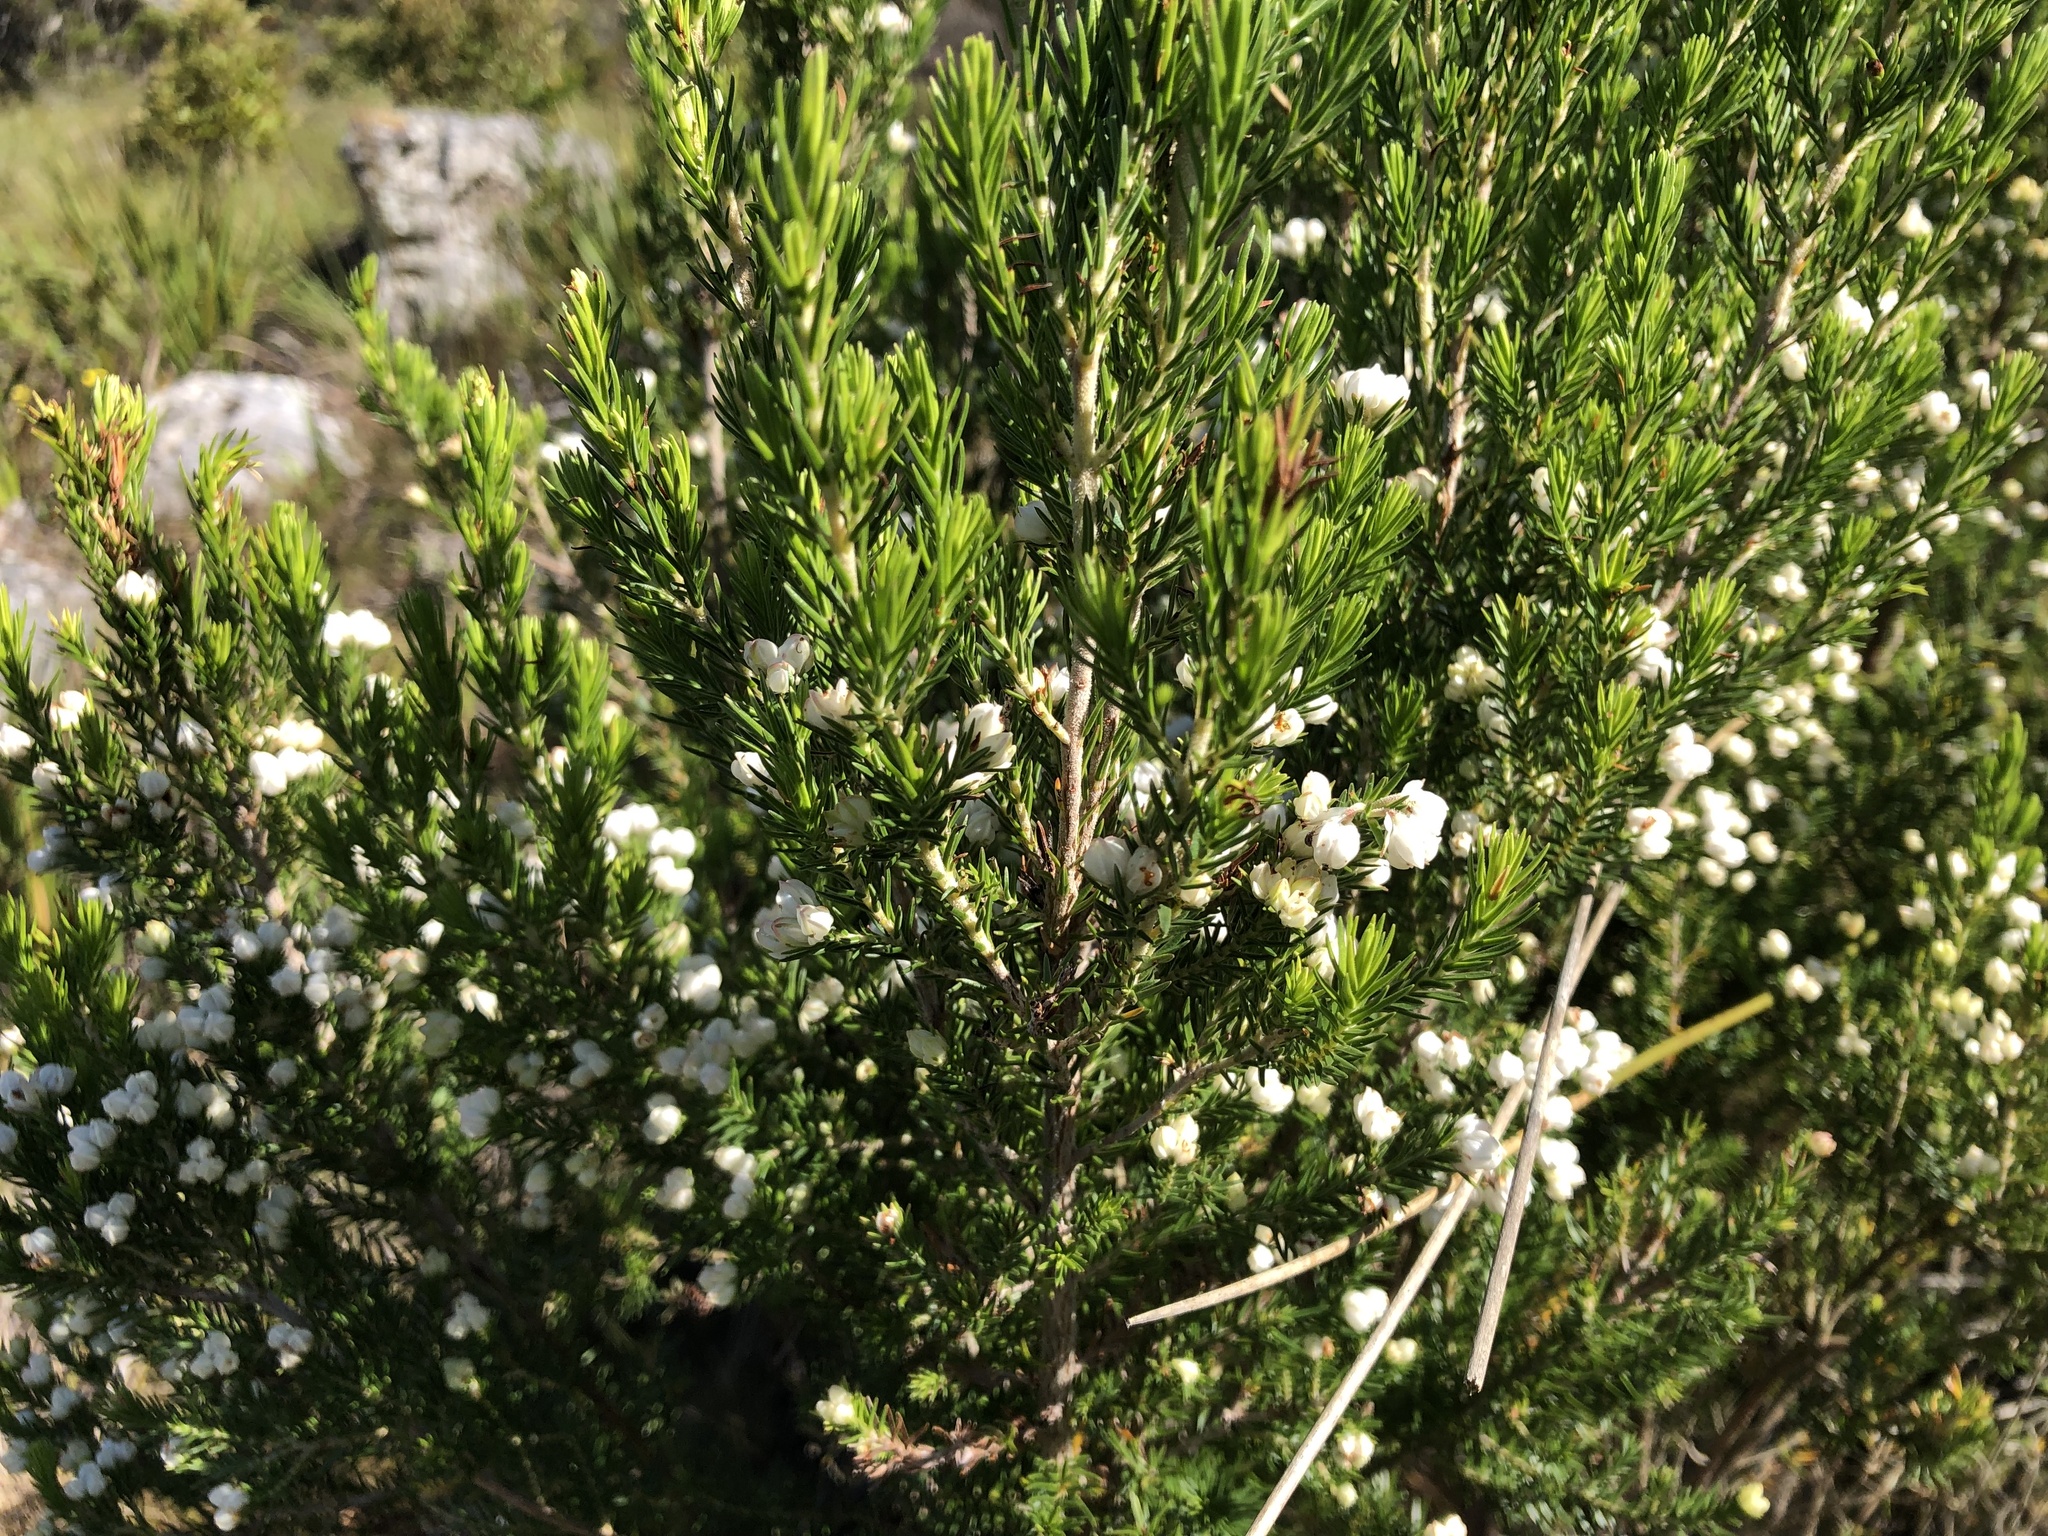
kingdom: Plantae
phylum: Tracheophyta
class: Magnoliopsida
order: Ericales
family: Ericaceae
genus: Erica
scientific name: Erica triflora
